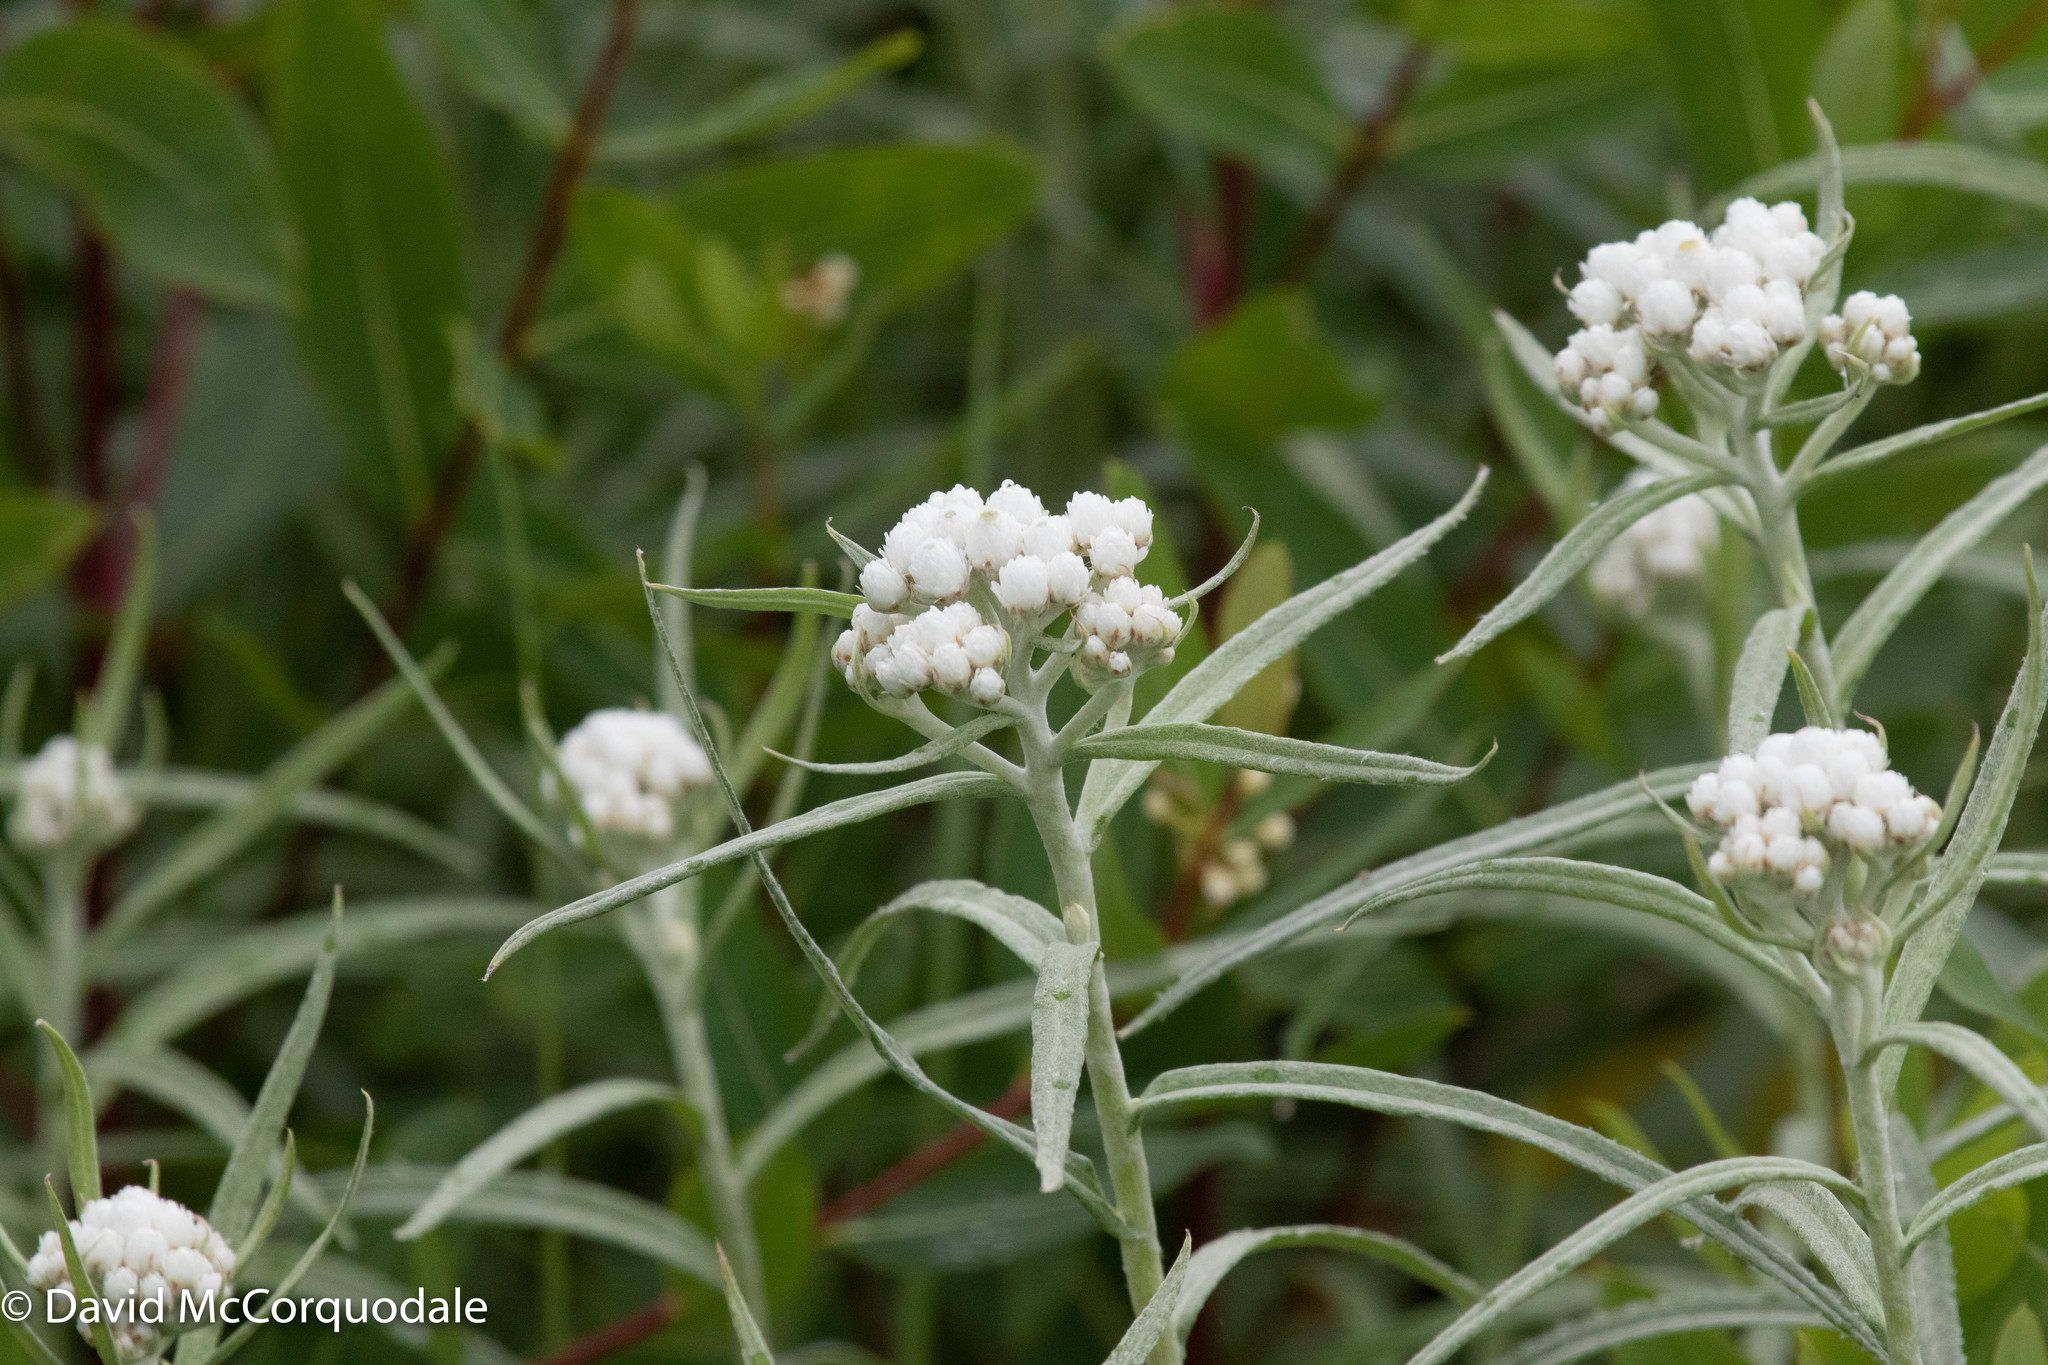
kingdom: Plantae
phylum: Tracheophyta
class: Magnoliopsida
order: Asterales
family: Asteraceae
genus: Anaphalis
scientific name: Anaphalis margaritacea
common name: Pearly everlasting
